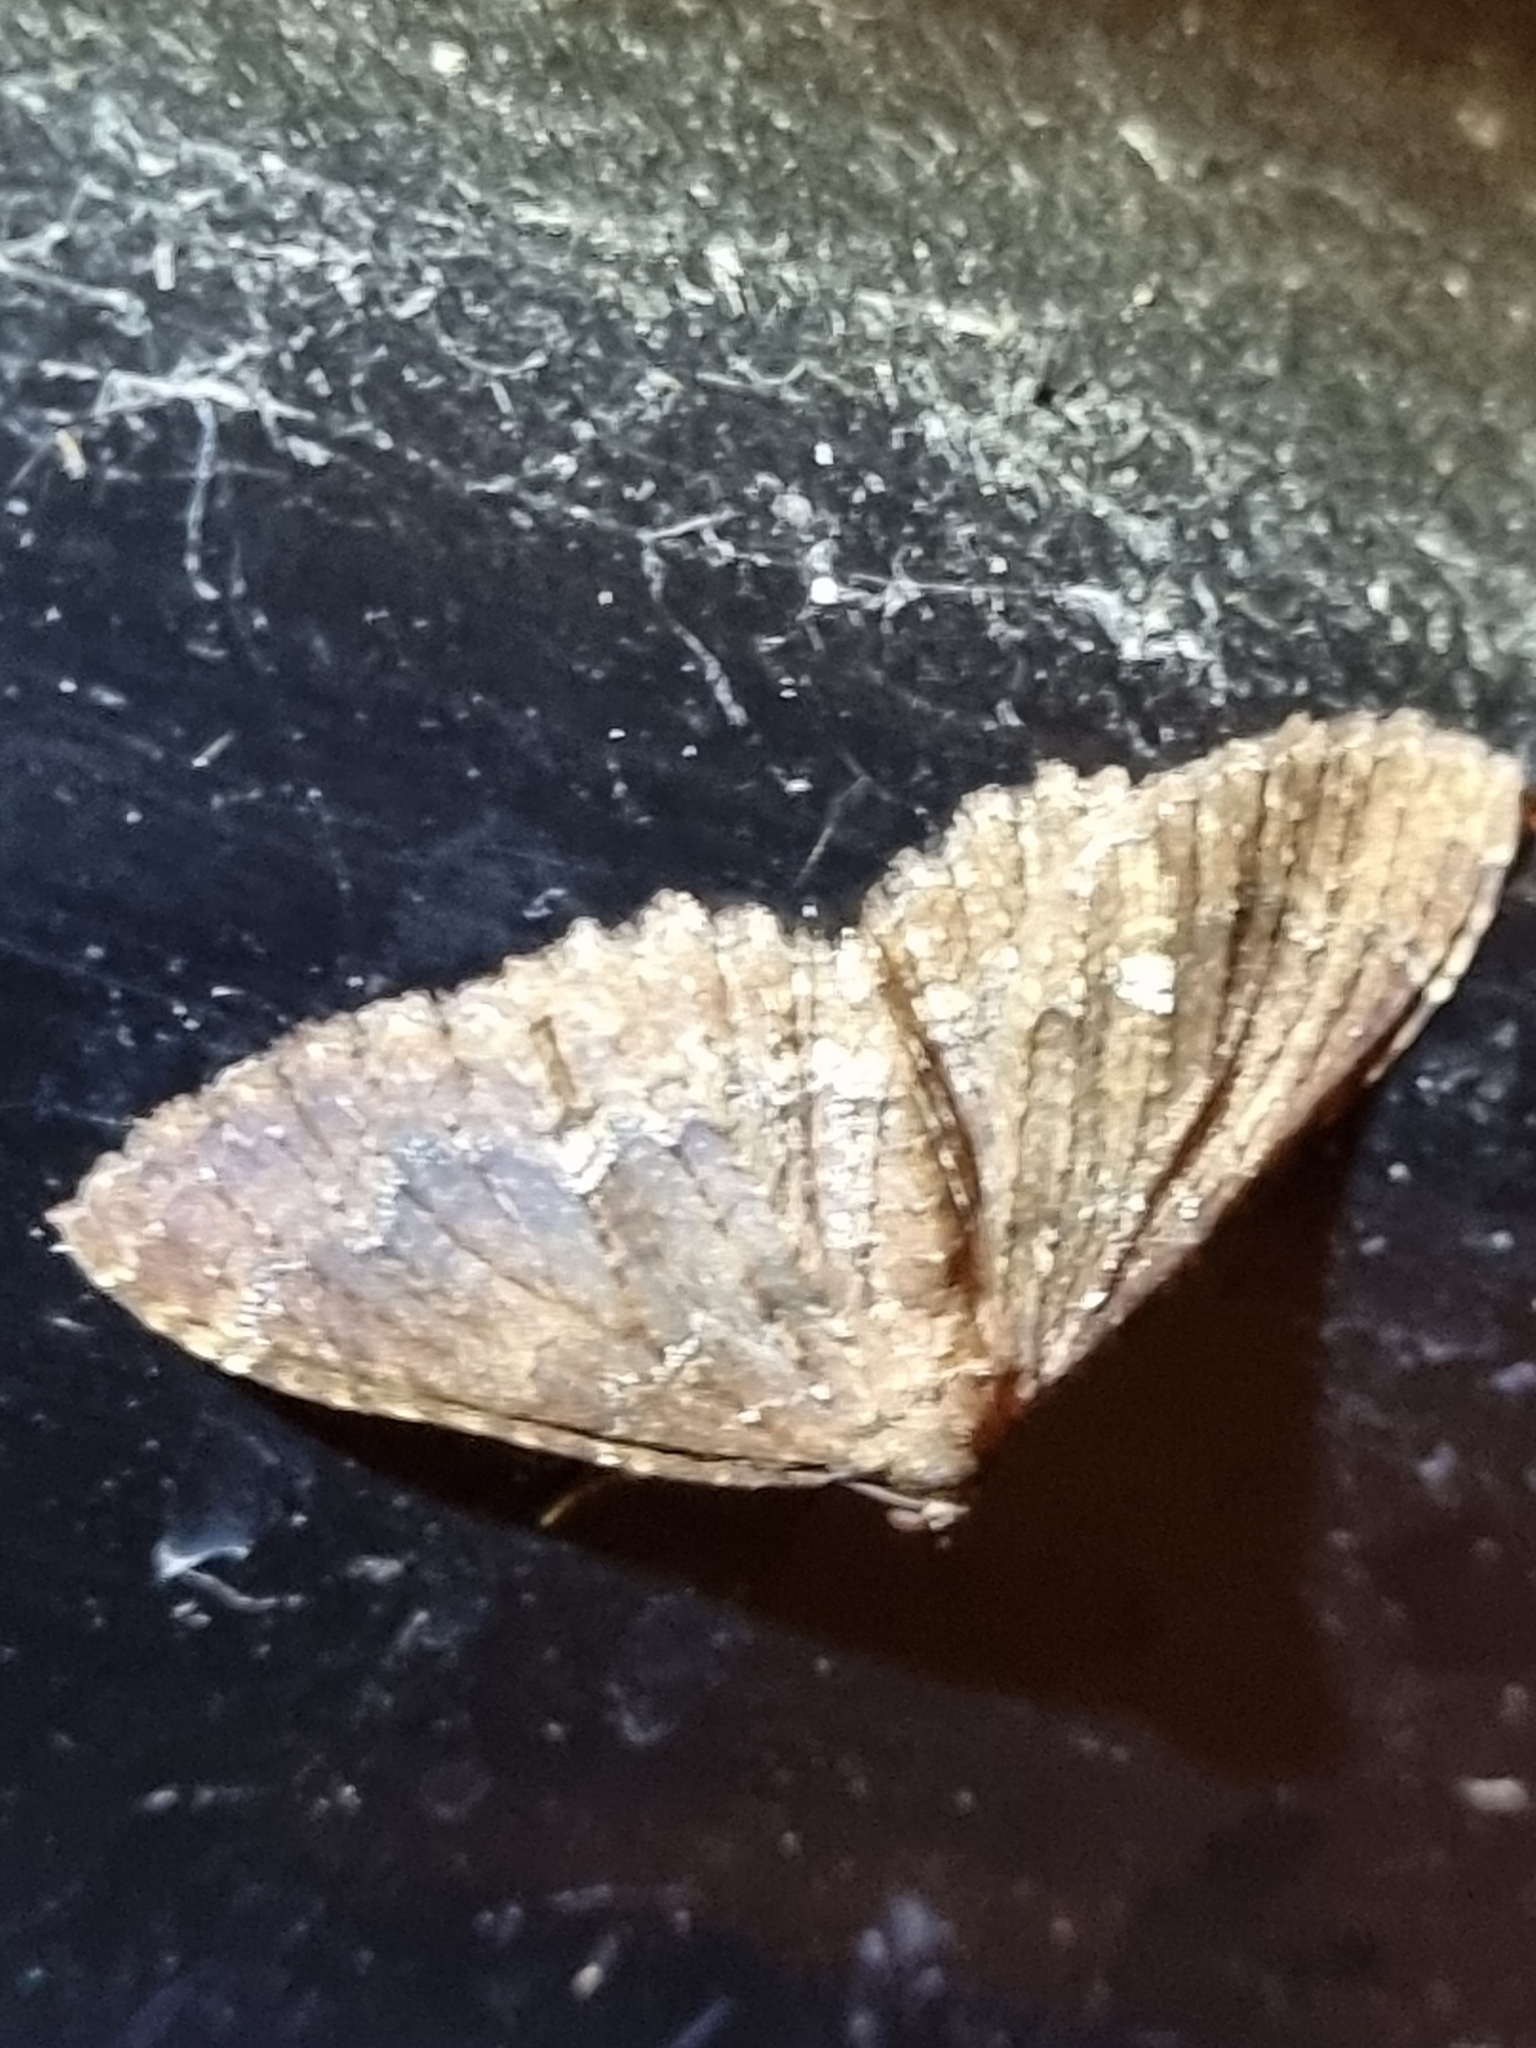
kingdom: Animalia
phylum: Arthropoda
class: Insecta
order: Lepidoptera
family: Geometridae
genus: Visiana
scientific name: Visiana brujata
